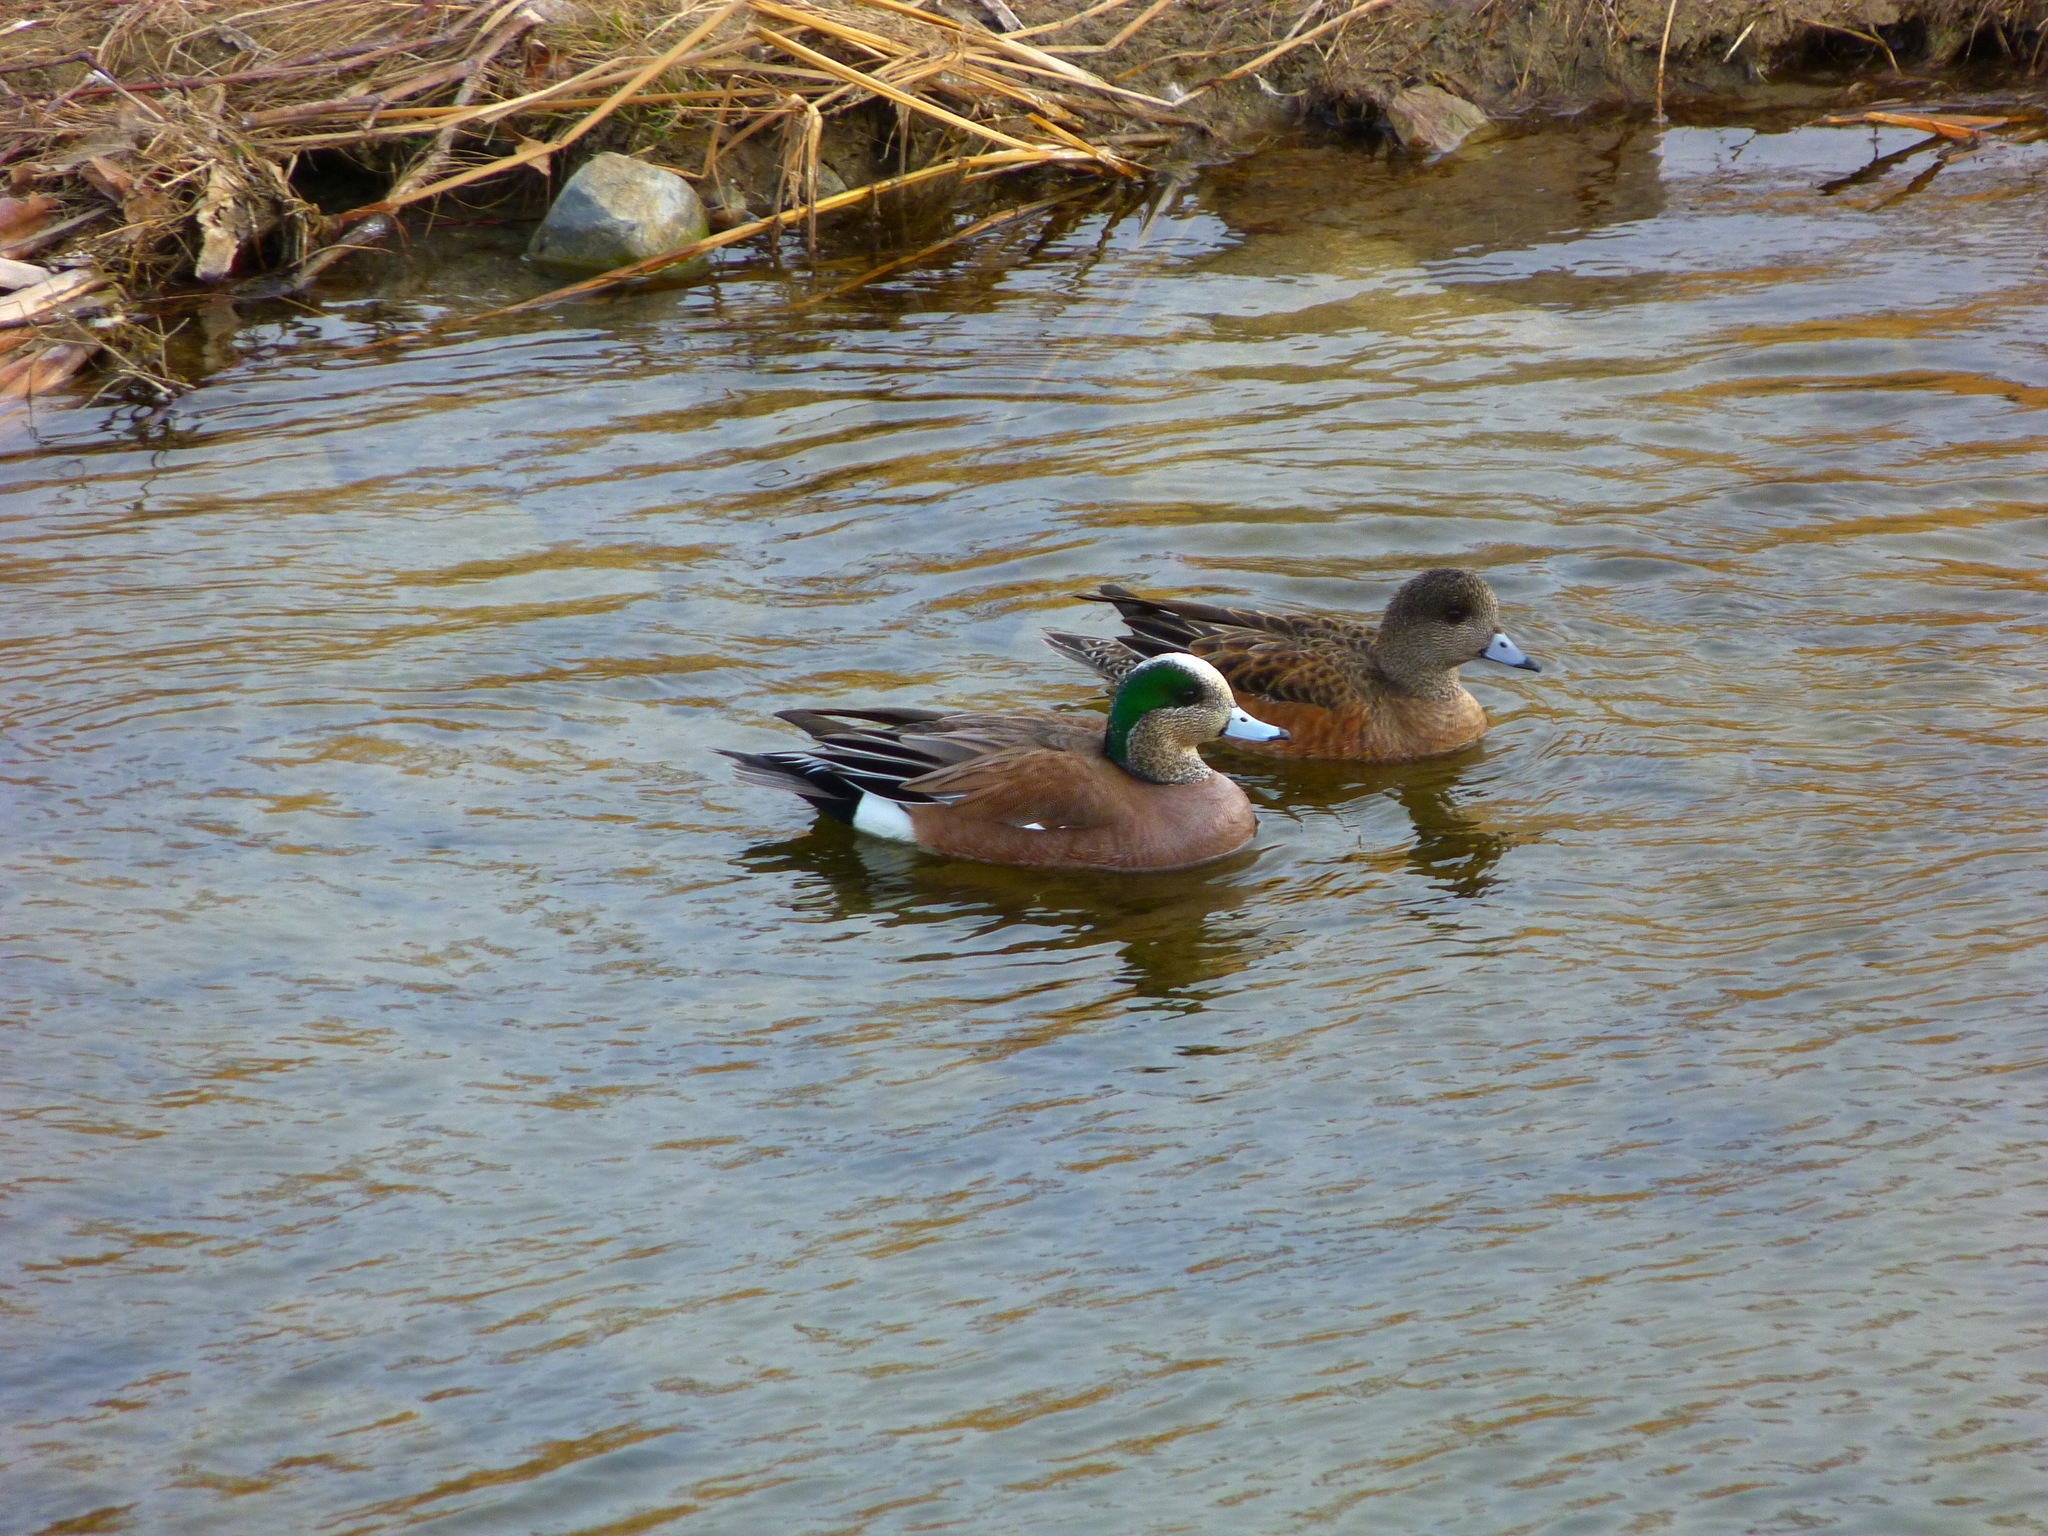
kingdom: Animalia
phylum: Chordata
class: Aves
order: Anseriformes
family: Anatidae
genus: Mareca
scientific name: Mareca americana
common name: American wigeon
